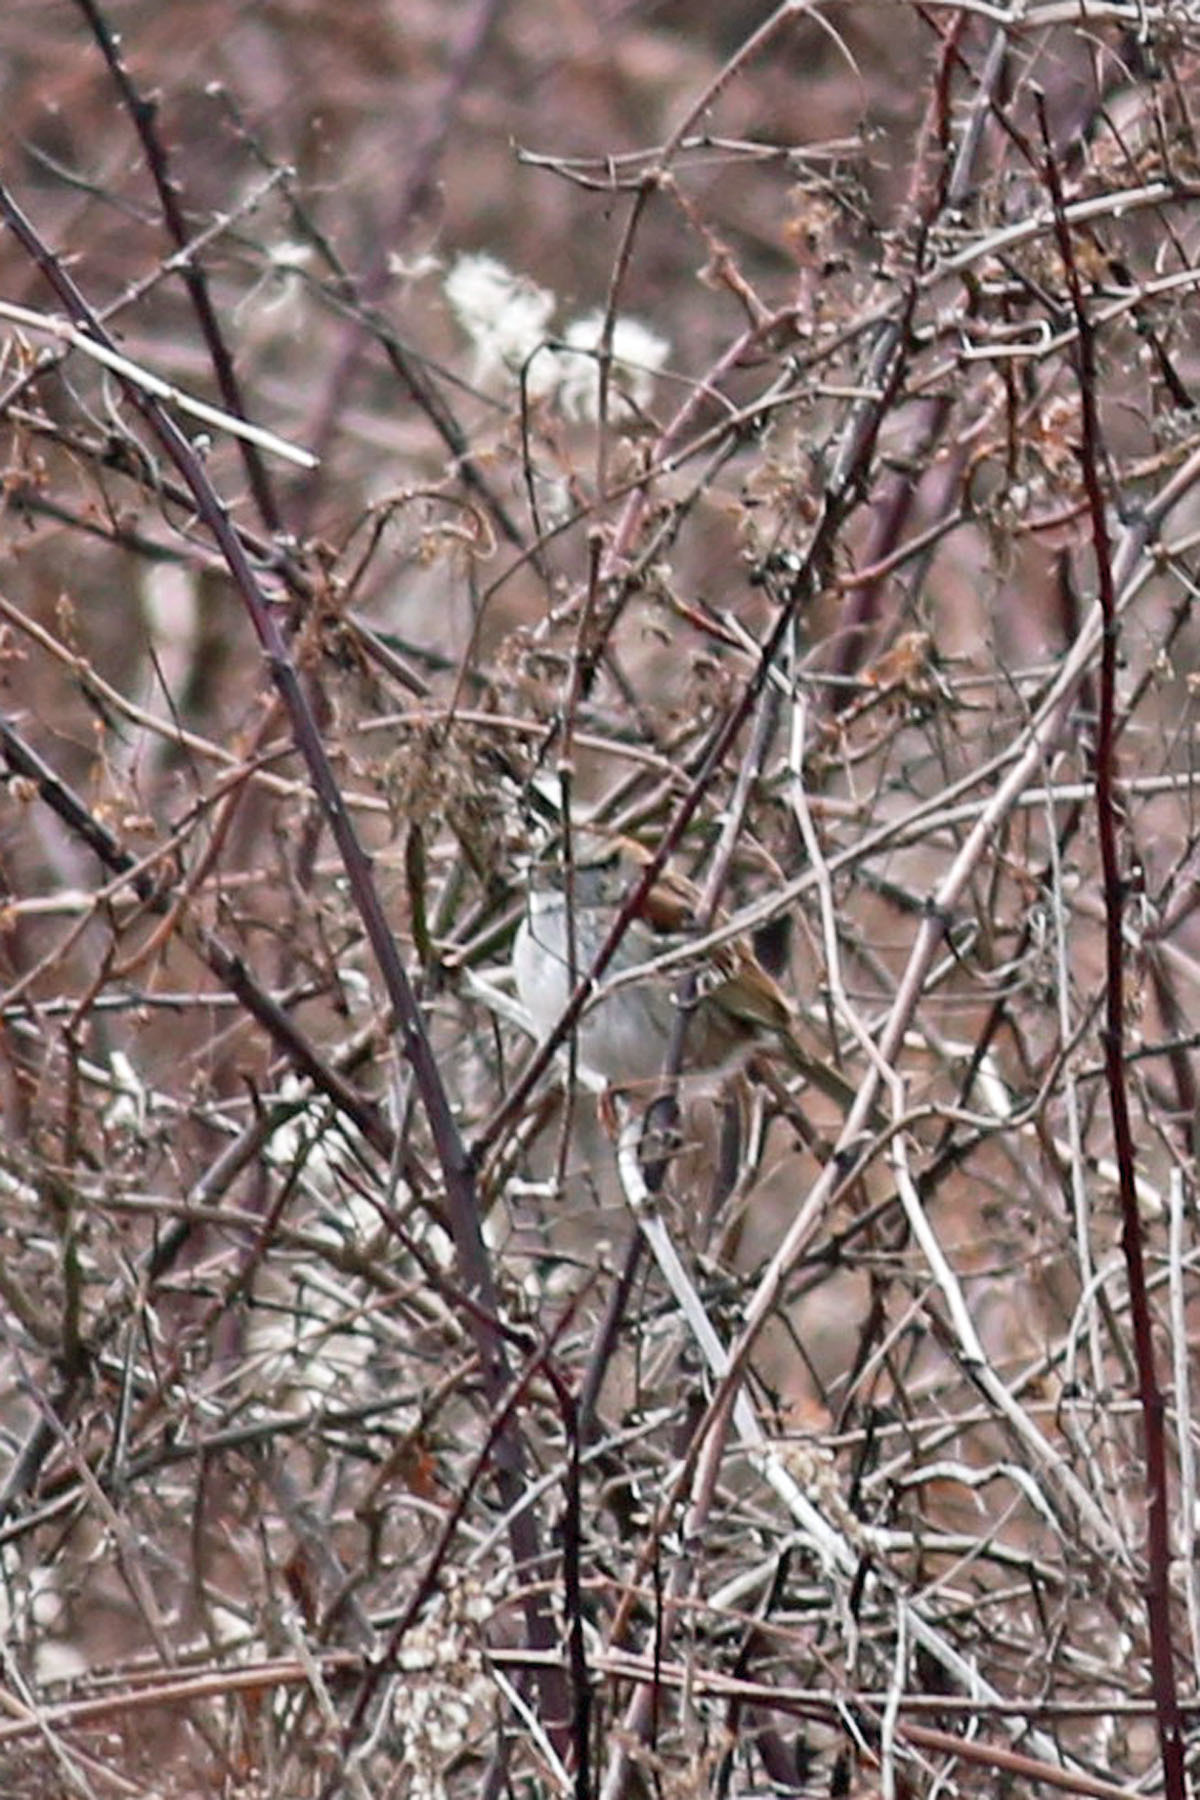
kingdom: Animalia
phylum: Chordata
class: Aves
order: Passeriformes
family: Passerellidae
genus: Zonotrichia
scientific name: Zonotrichia albicollis
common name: White-throated sparrow
